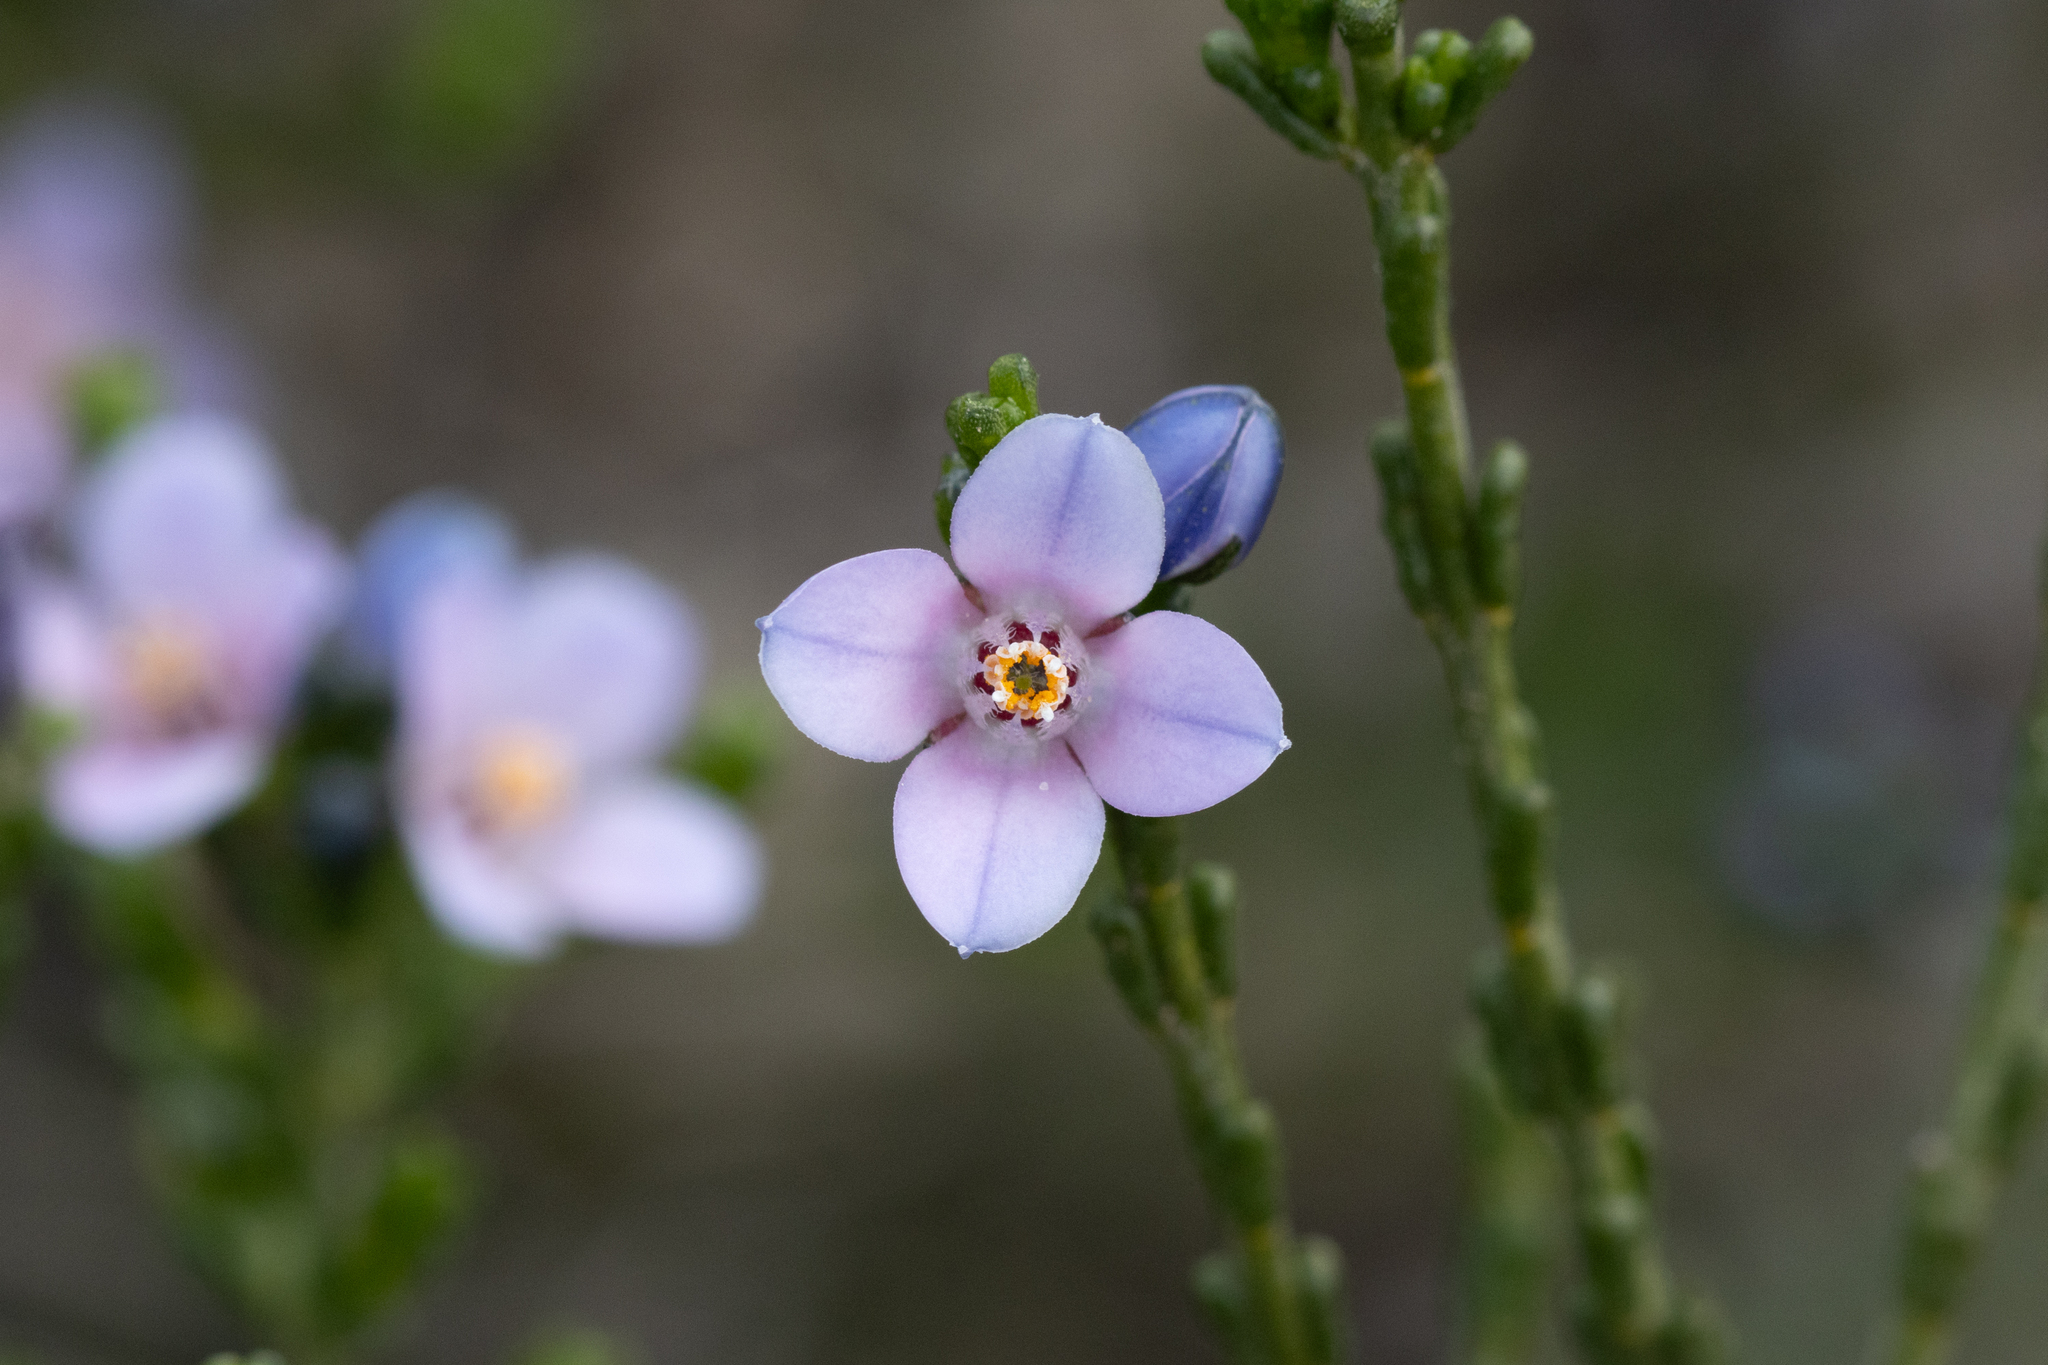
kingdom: Plantae
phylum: Tracheophyta
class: Magnoliopsida
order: Sapindales
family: Rutaceae
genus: Cyanothamnus
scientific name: Cyanothamnus coerulescens
